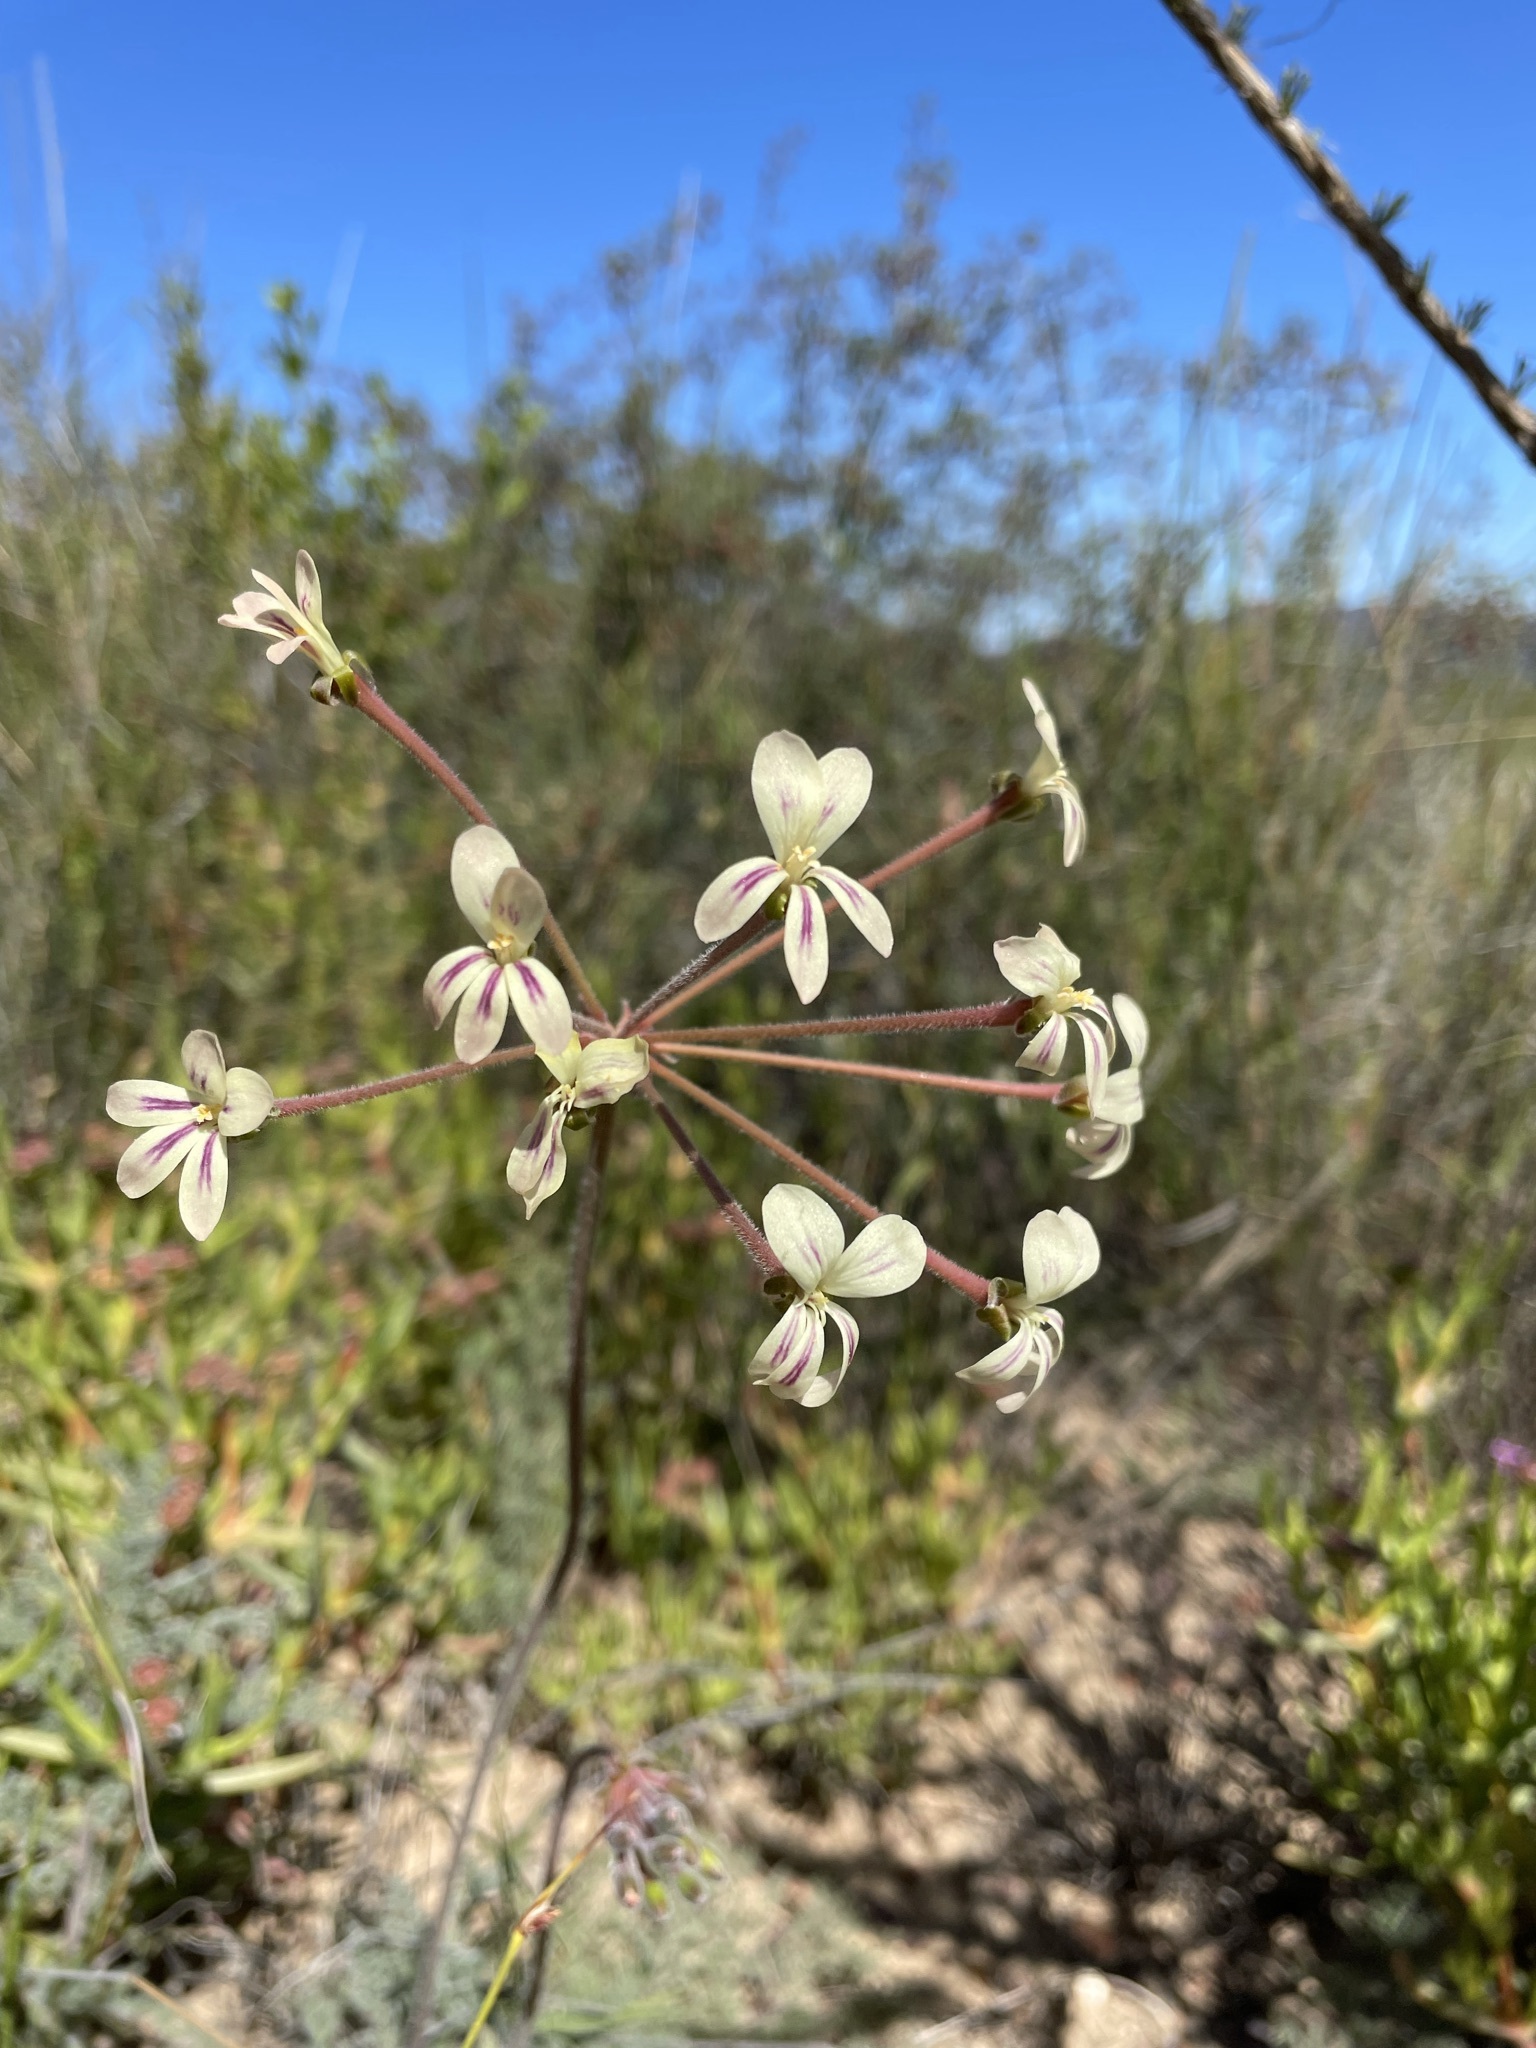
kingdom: Plantae
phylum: Tracheophyta
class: Magnoliopsida
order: Geraniales
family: Geraniaceae
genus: Pelargonium
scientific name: Pelargonium triste
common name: Night-scent pelargonium
